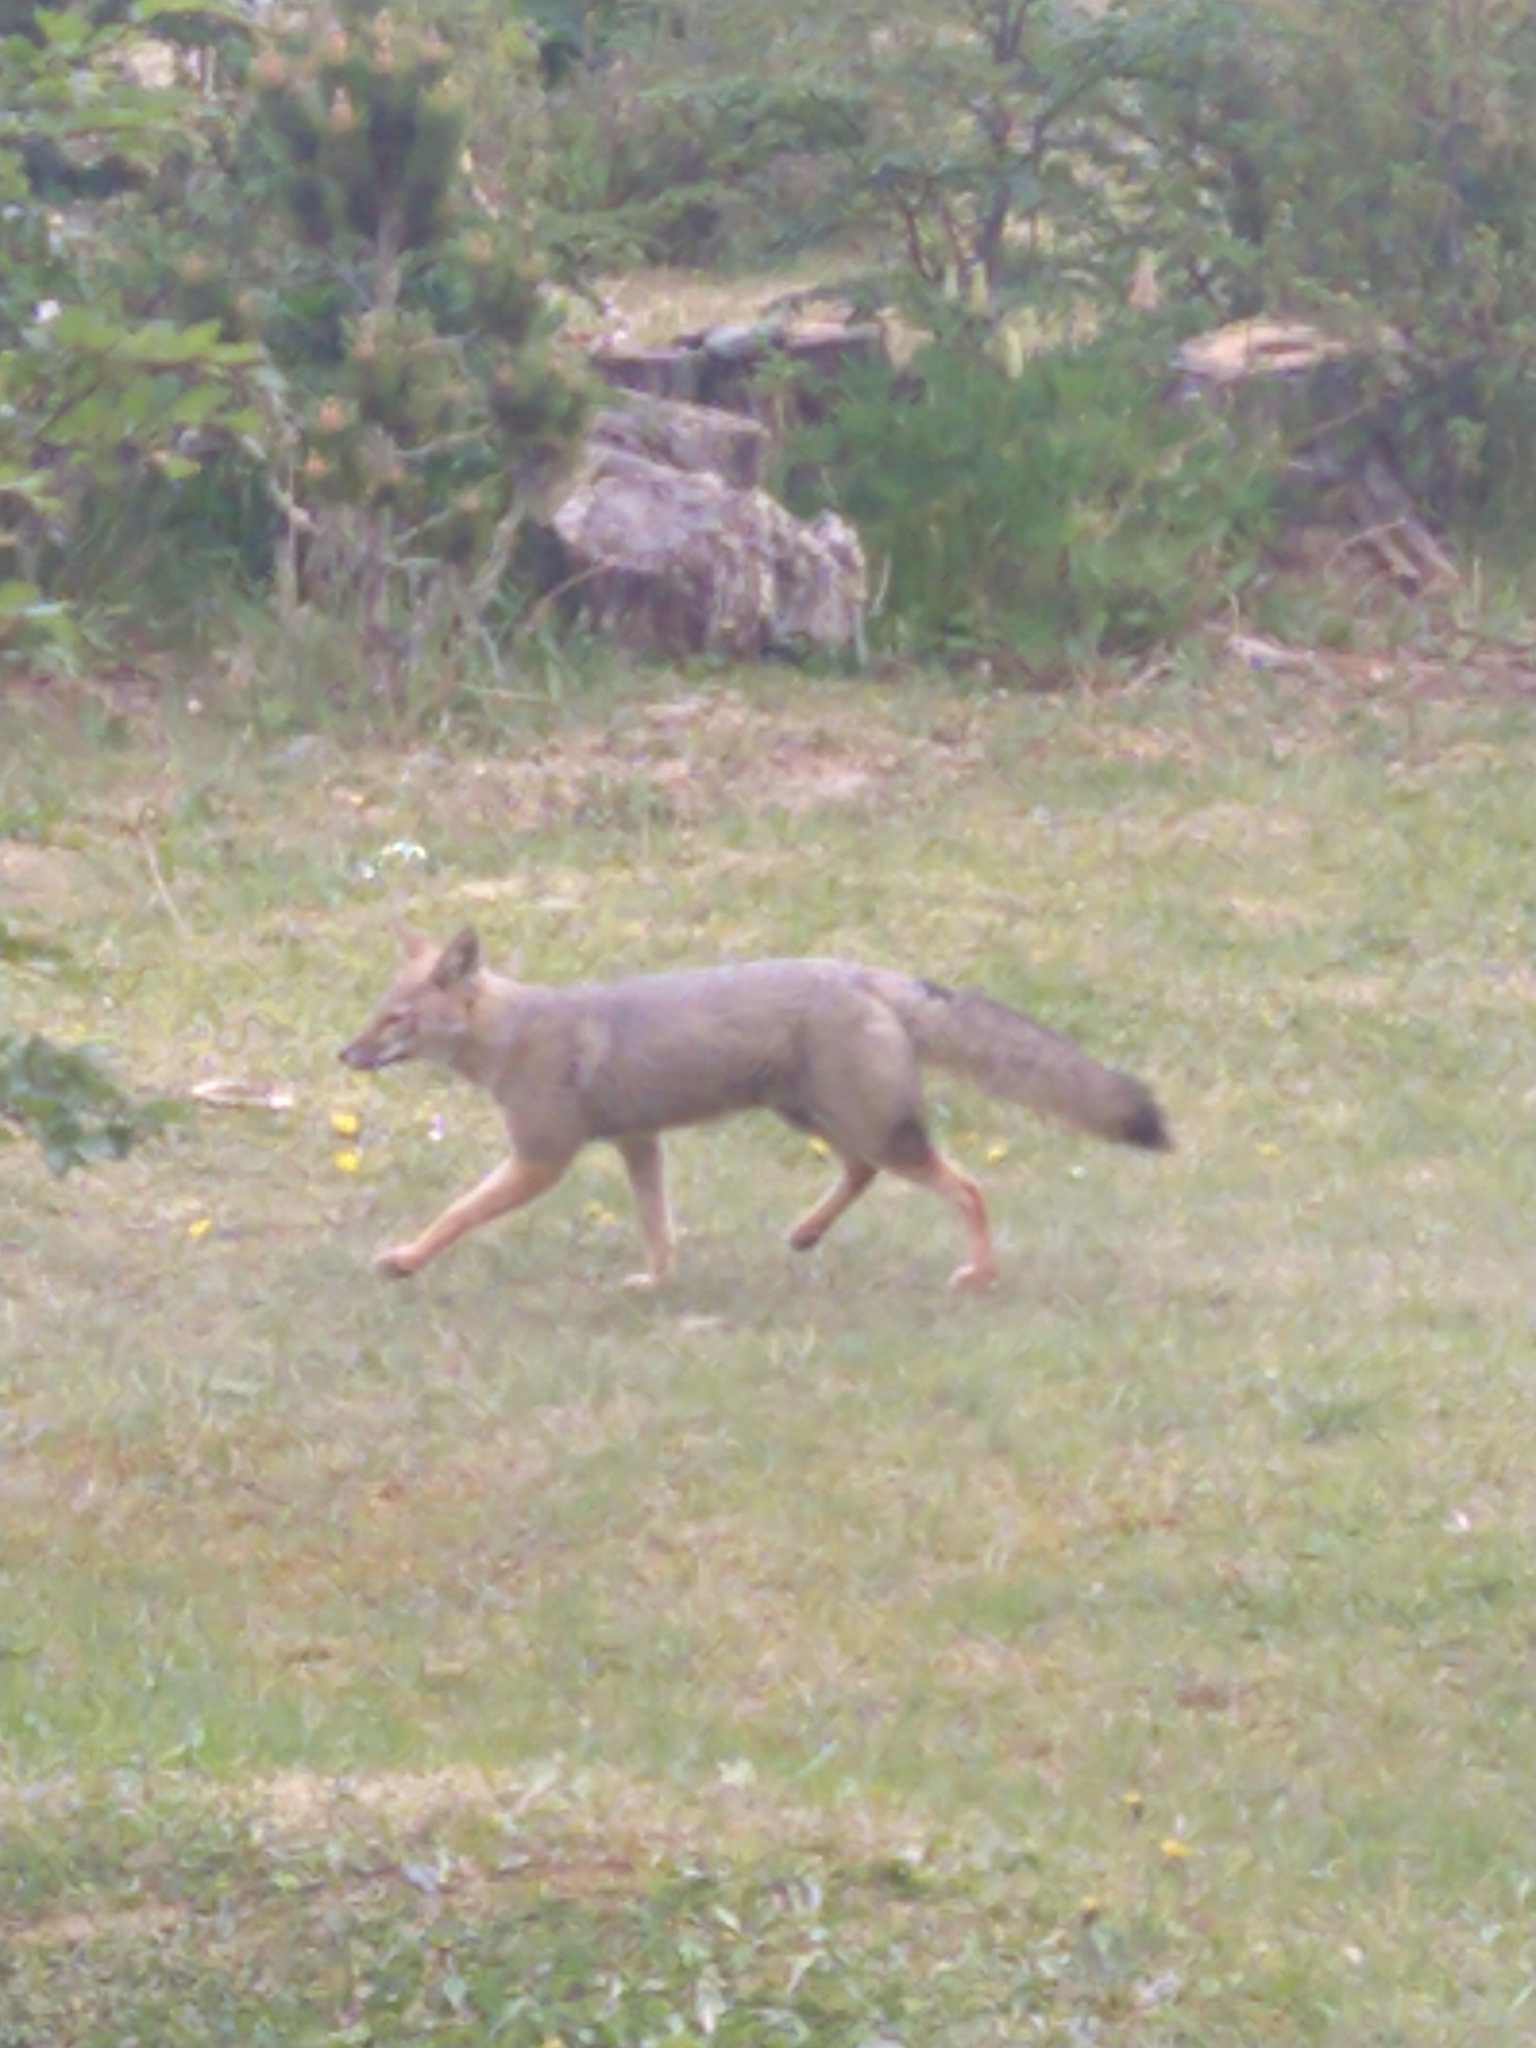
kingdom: Animalia
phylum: Chordata
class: Mammalia
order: Carnivora
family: Canidae
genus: Lycalopex
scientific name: Lycalopex gymnocercus
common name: Pampas fox
